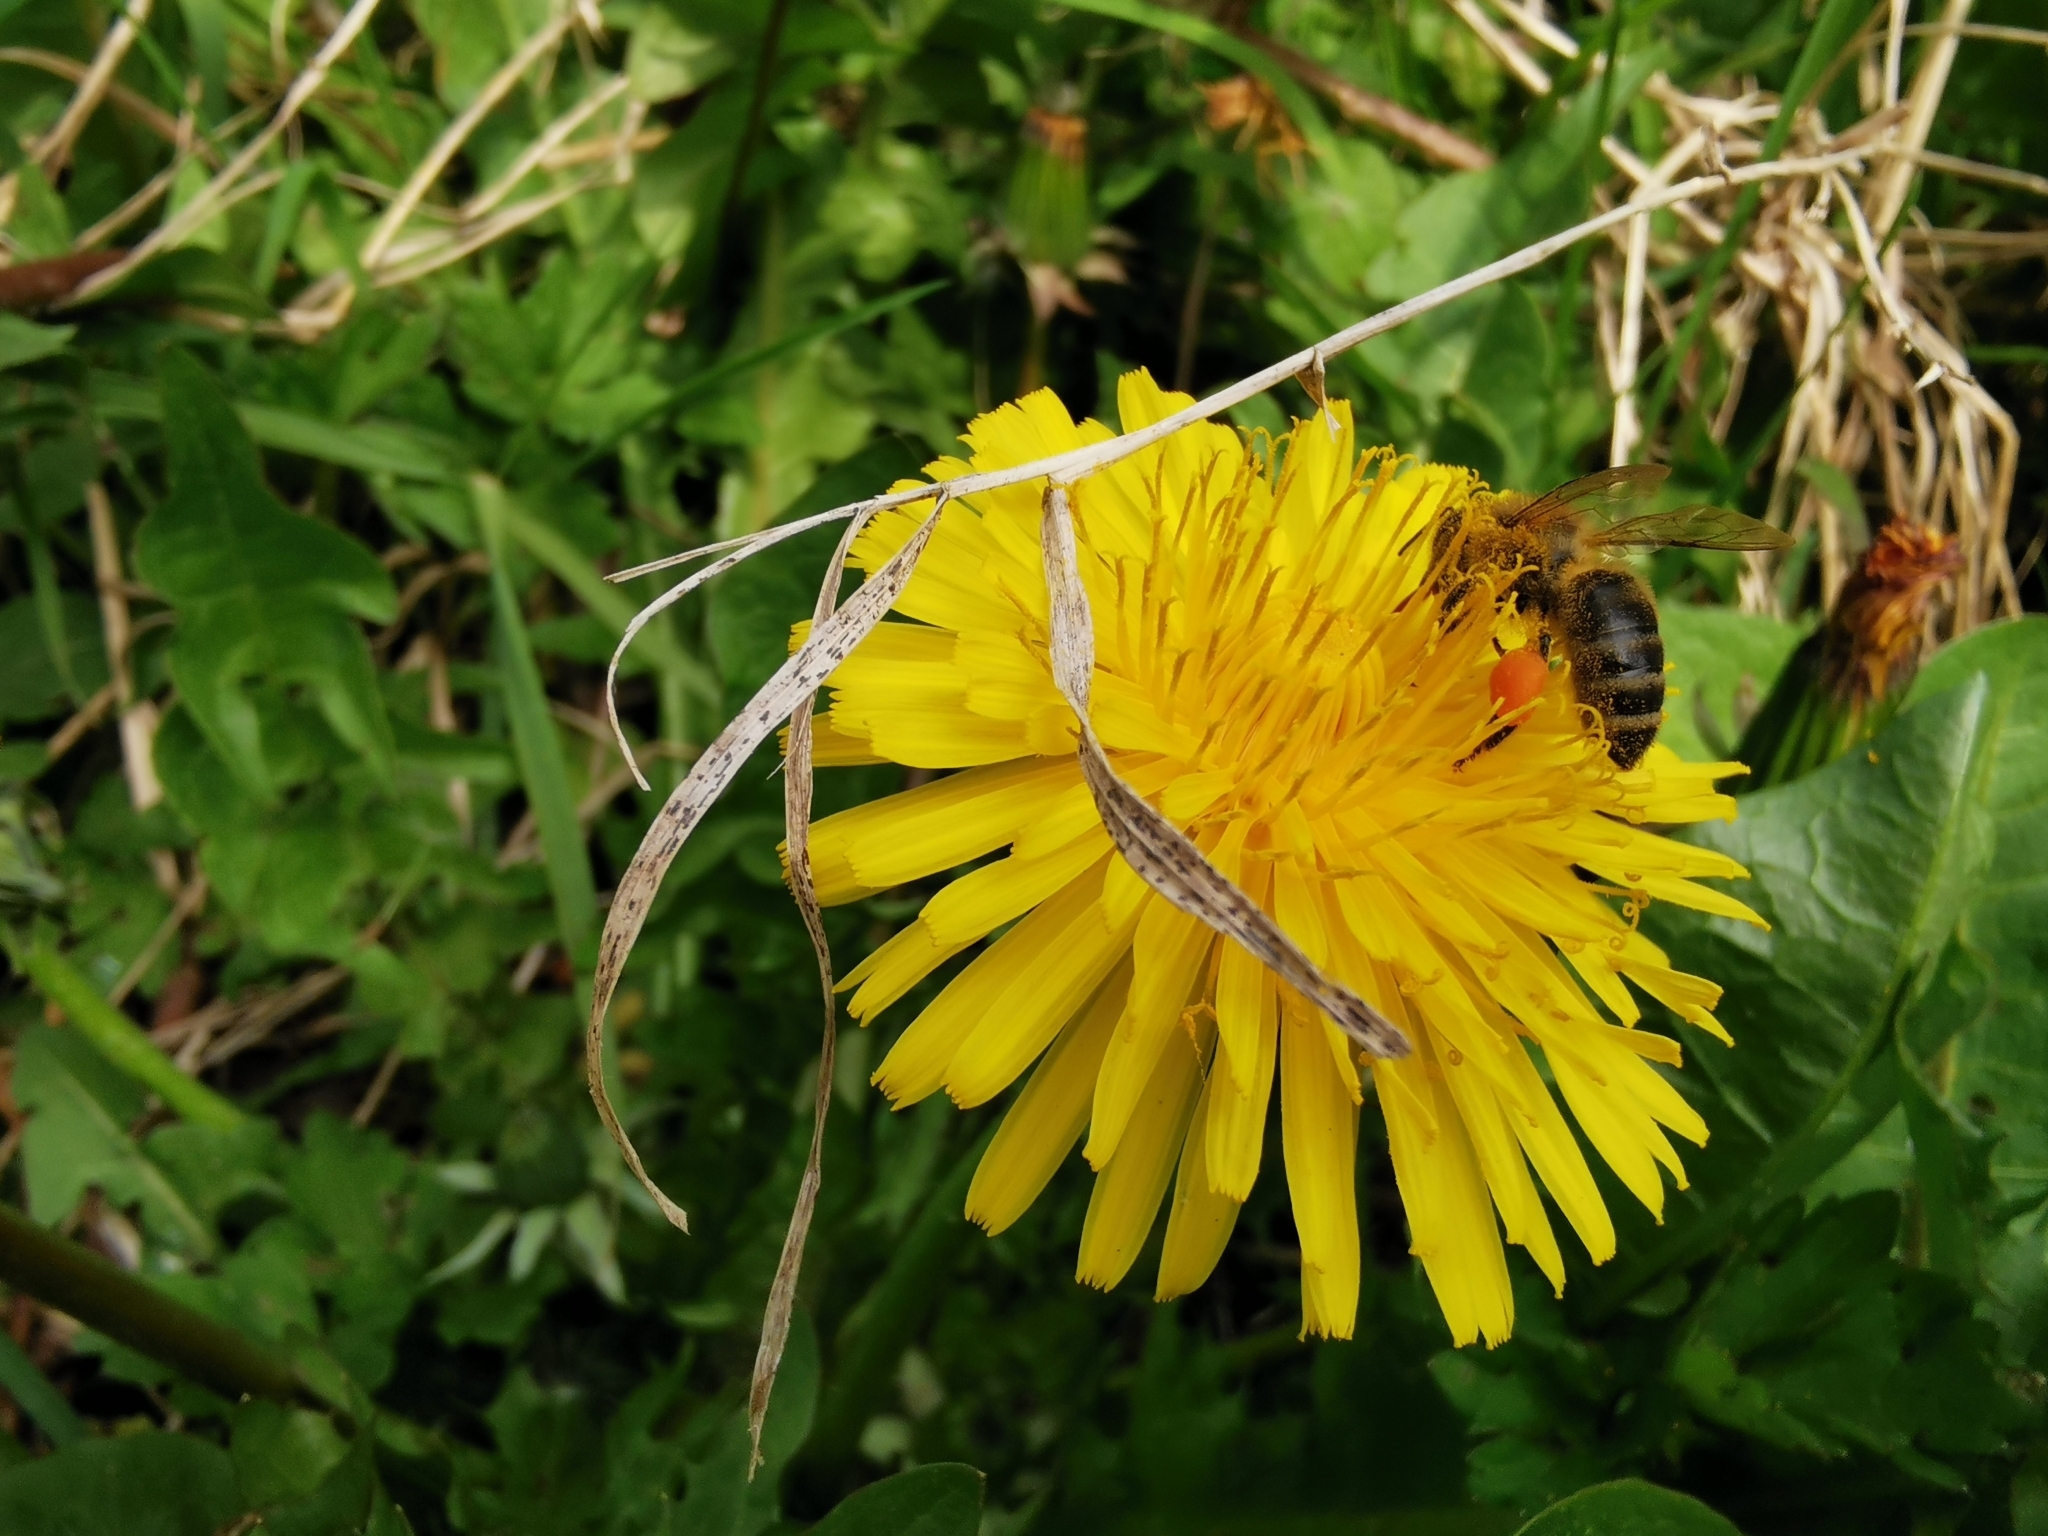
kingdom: Animalia
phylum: Arthropoda
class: Insecta
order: Hymenoptera
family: Apidae
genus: Apis
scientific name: Apis mellifera
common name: Honey bee
